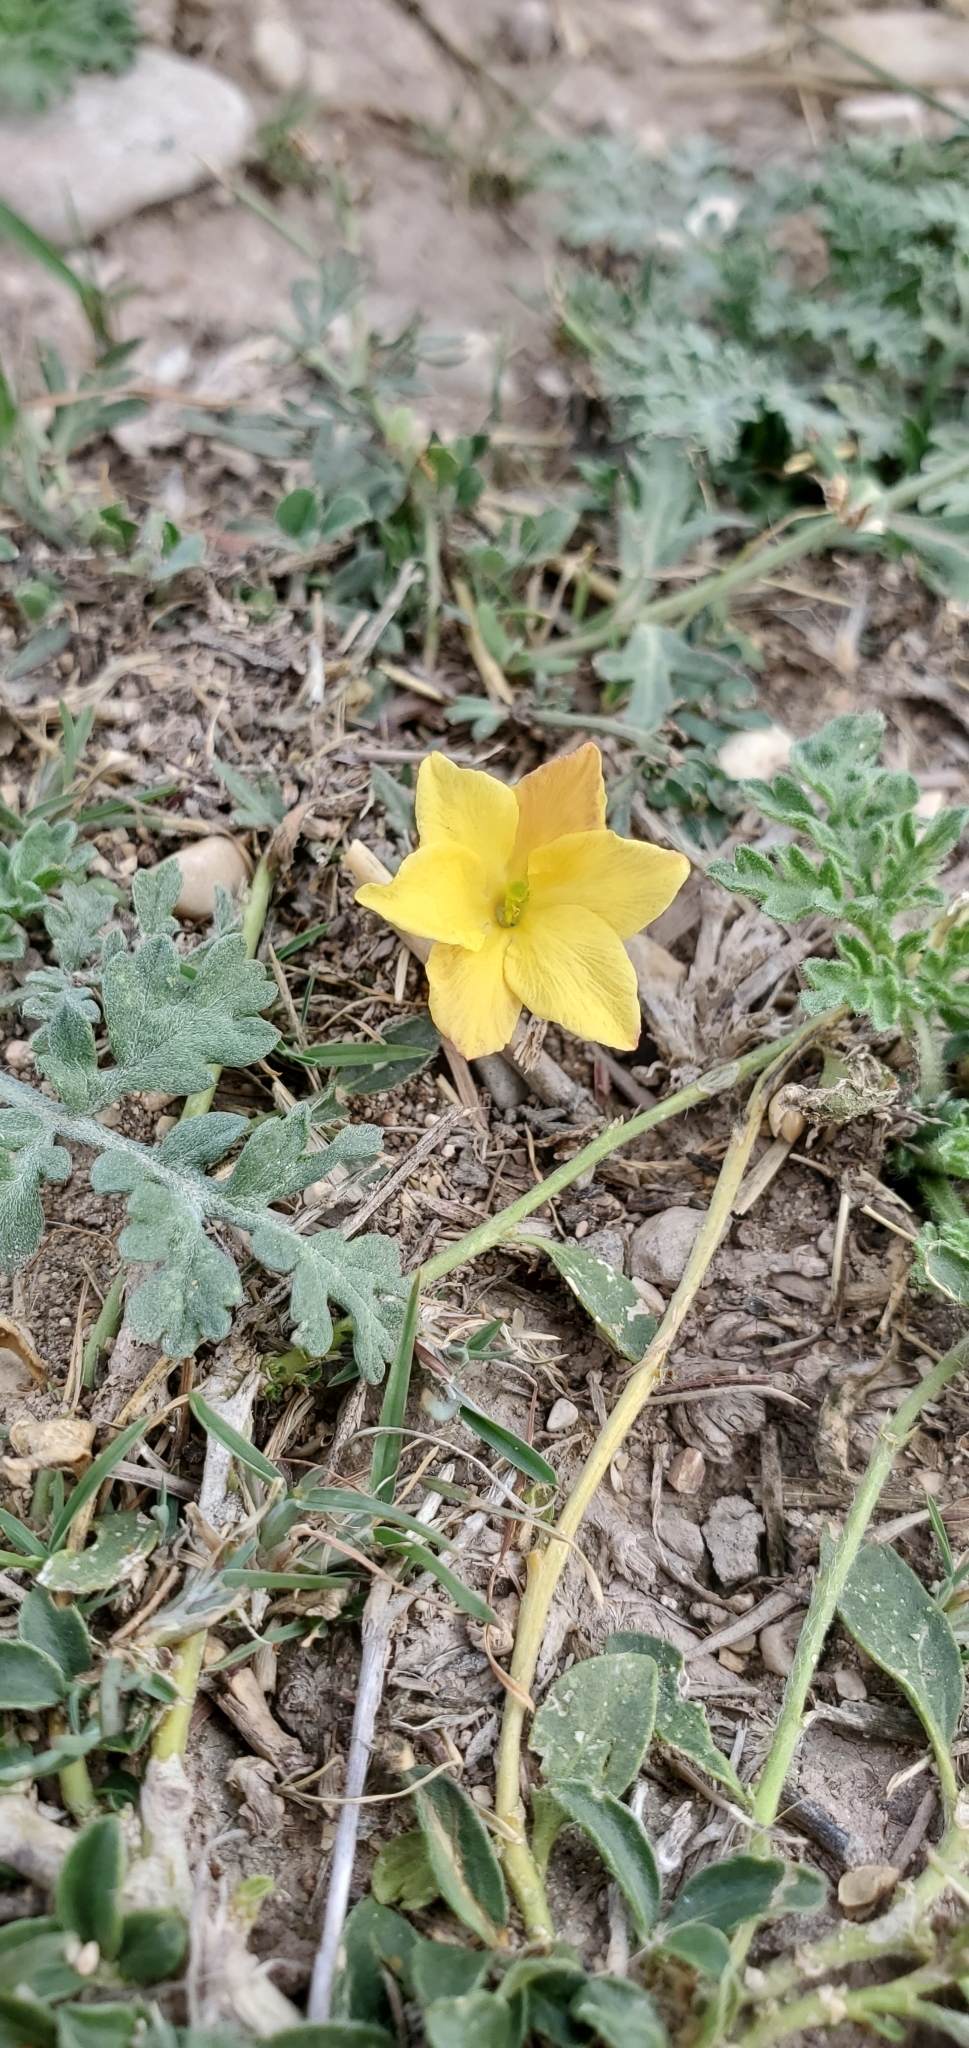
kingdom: Plantae
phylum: Tracheophyta
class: Magnoliopsida
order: Lamiales
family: Oleaceae
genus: Menodora
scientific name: Menodora heterophylla
